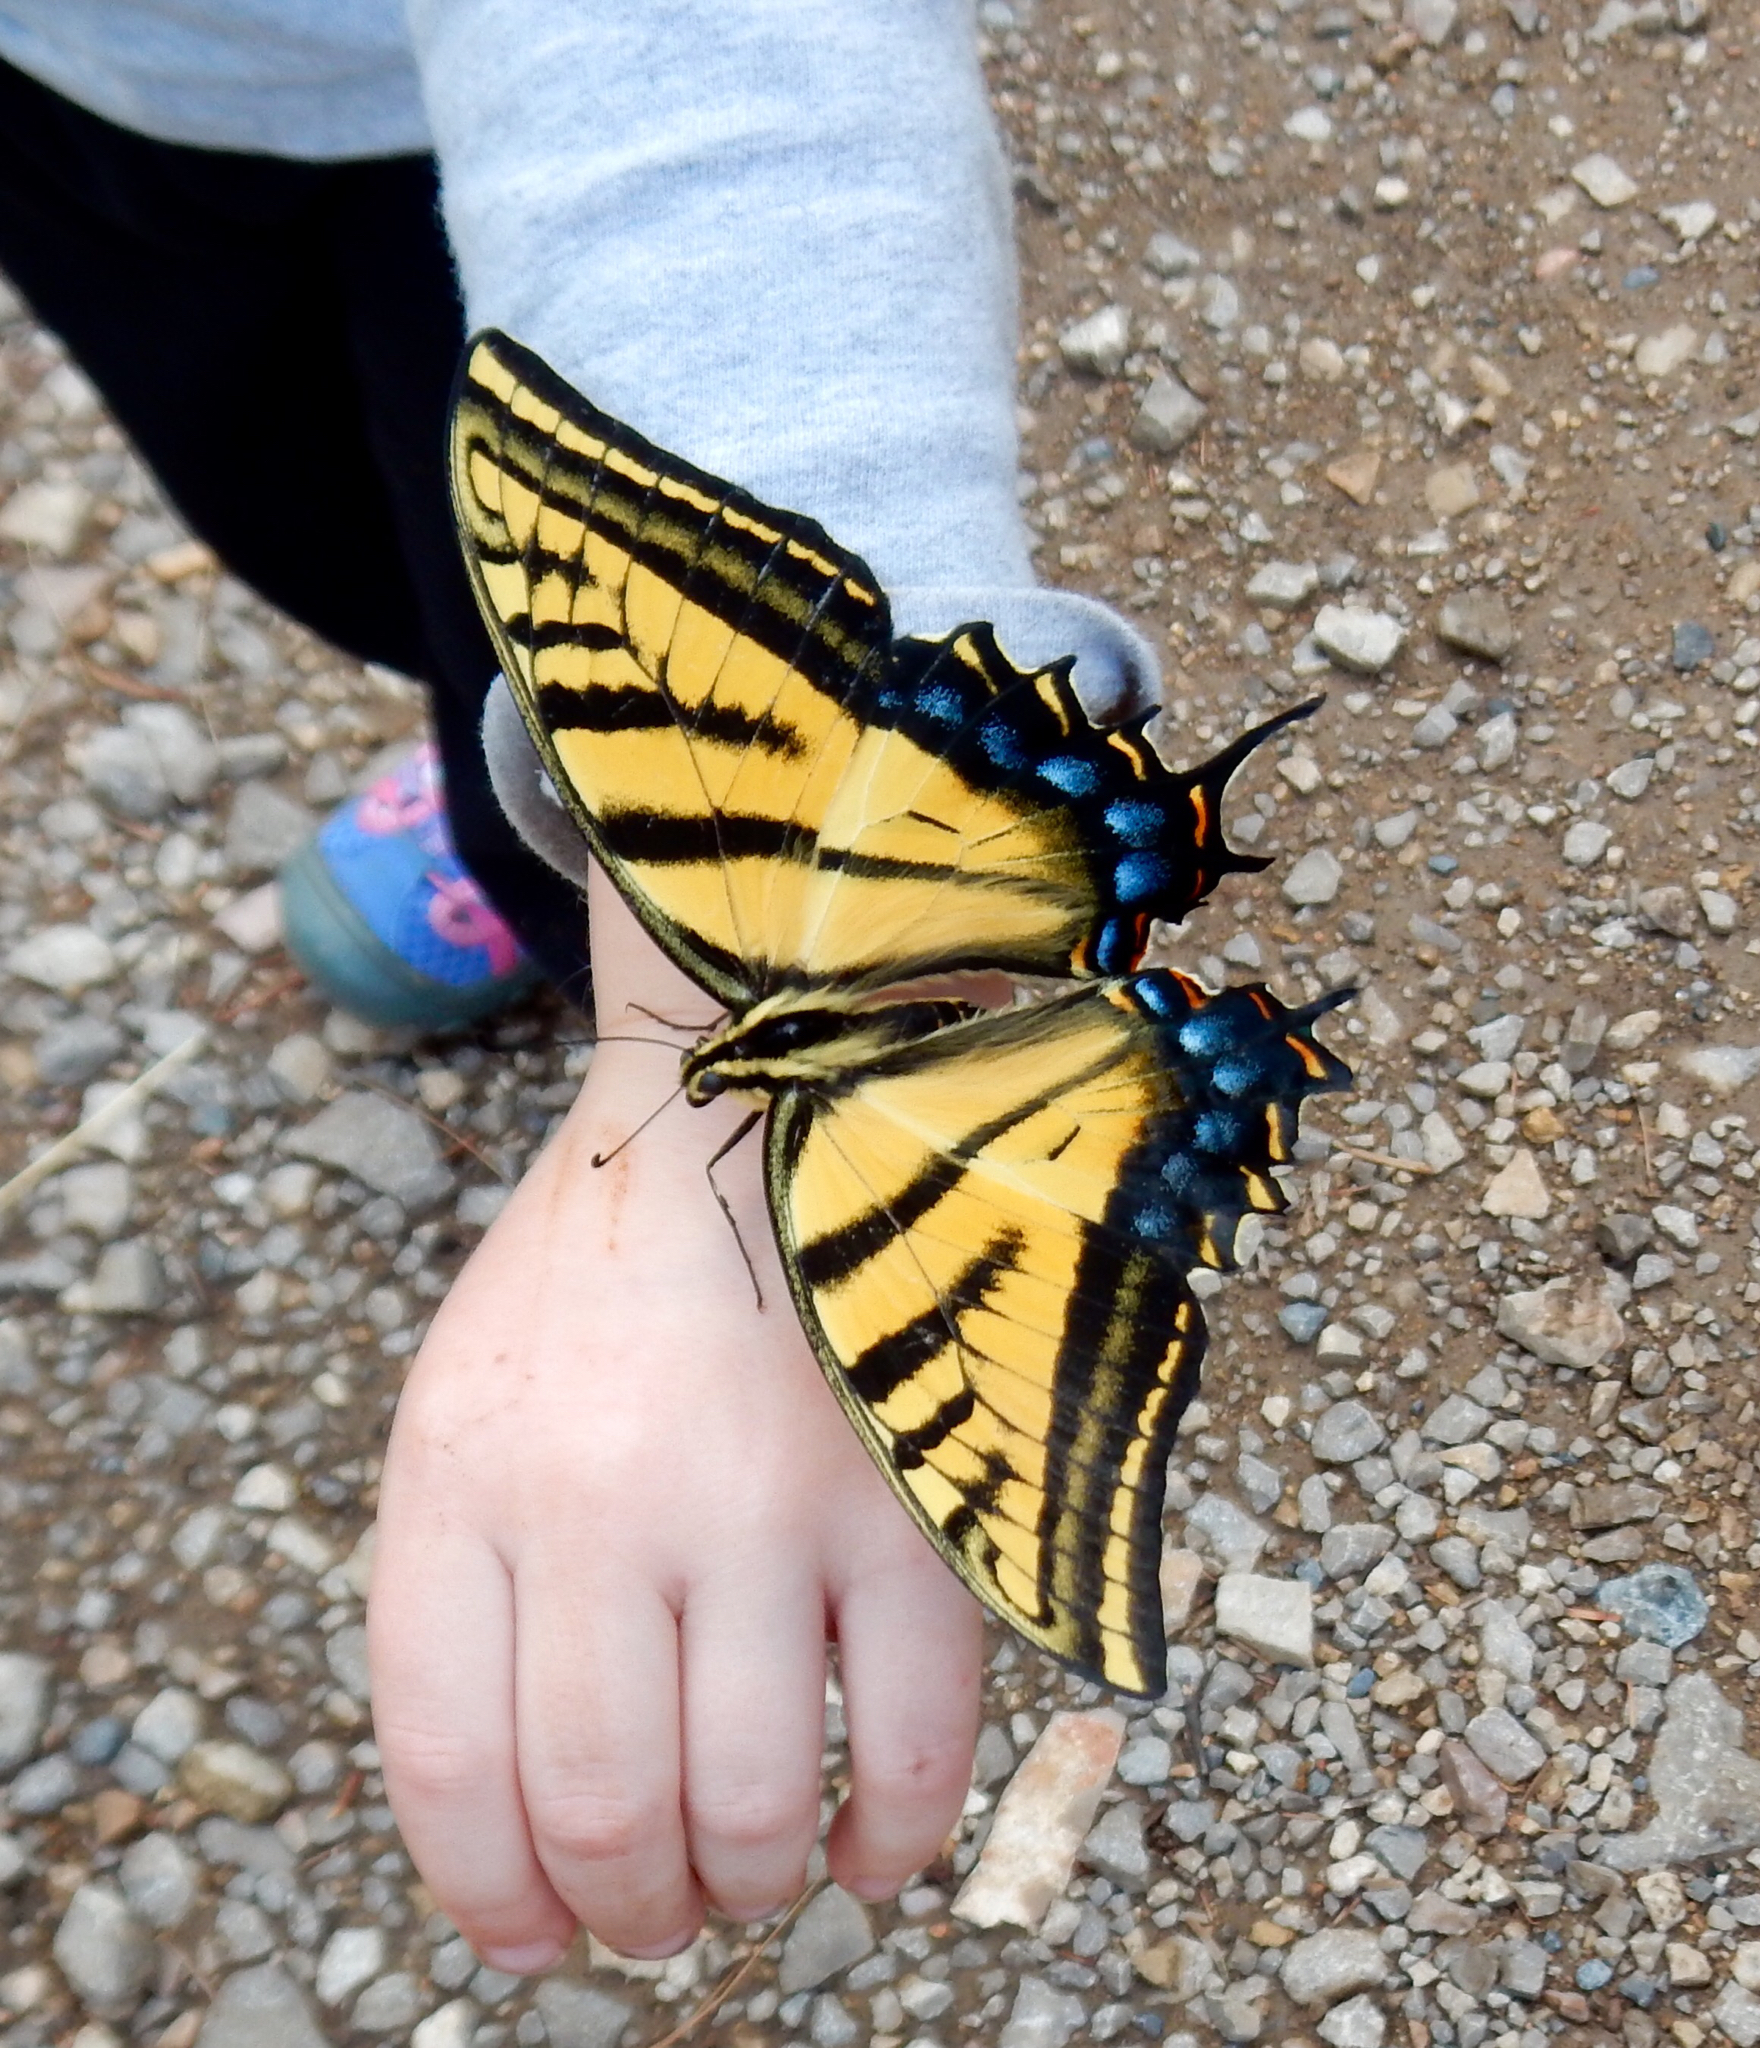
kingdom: Animalia
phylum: Arthropoda
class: Insecta
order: Lepidoptera
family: Papilionidae
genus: Papilio
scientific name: Papilio multicaudata
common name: Two-tailed tiger swallowtail
